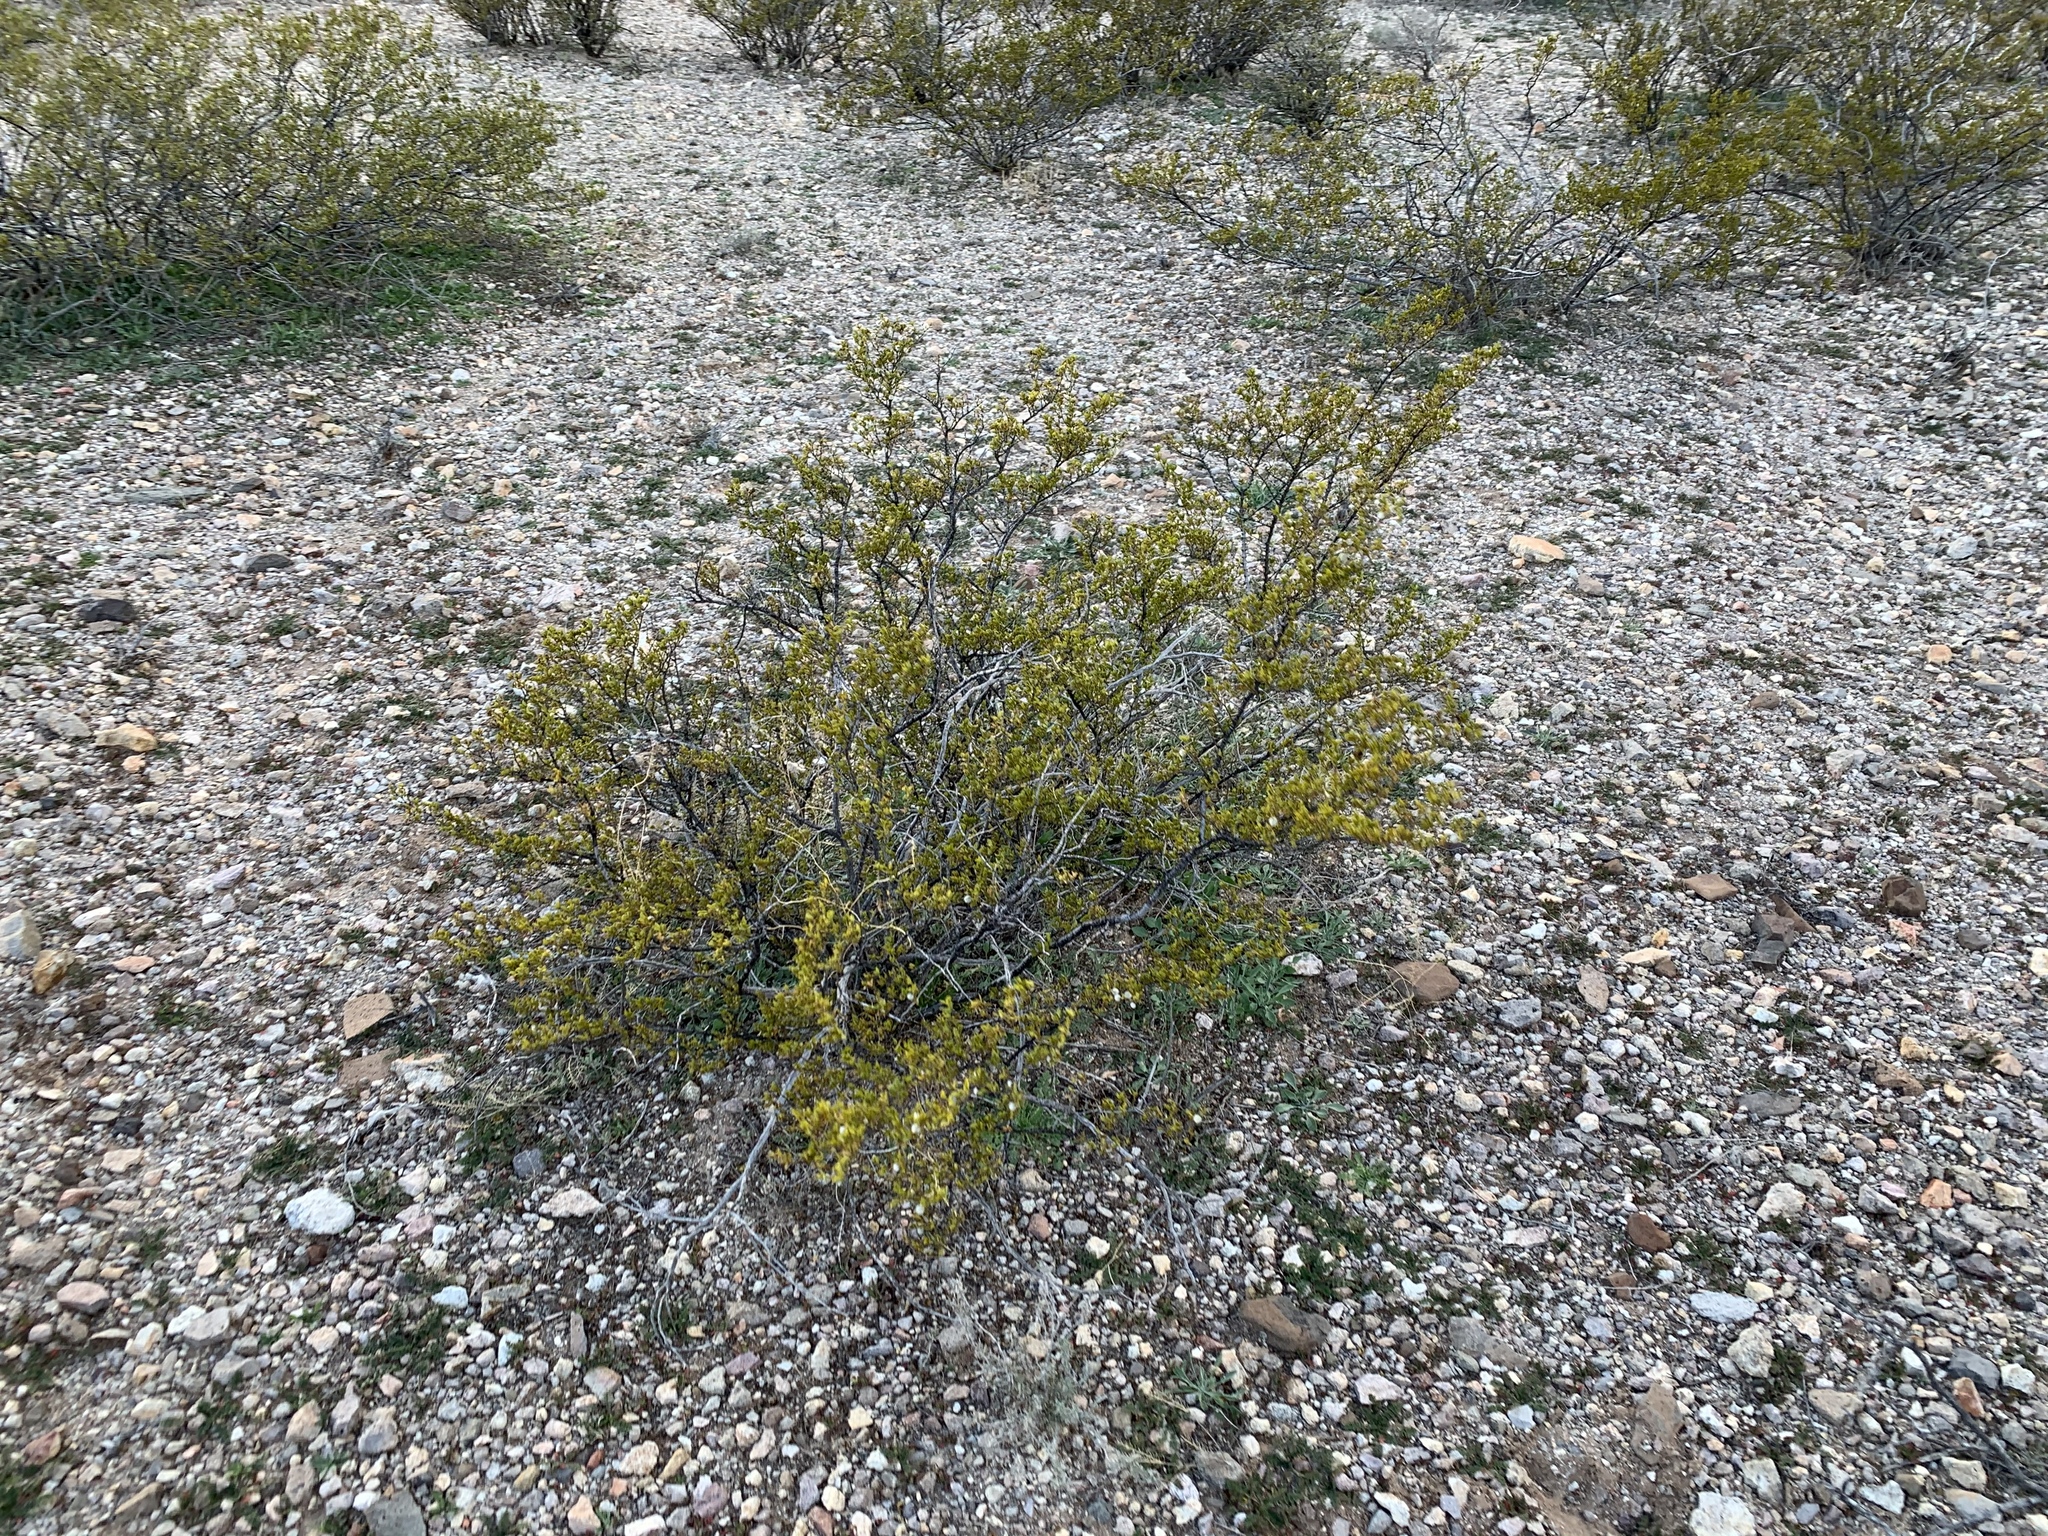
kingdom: Plantae
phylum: Tracheophyta
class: Magnoliopsida
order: Zygophyllales
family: Zygophyllaceae
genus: Larrea
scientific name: Larrea tridentata
